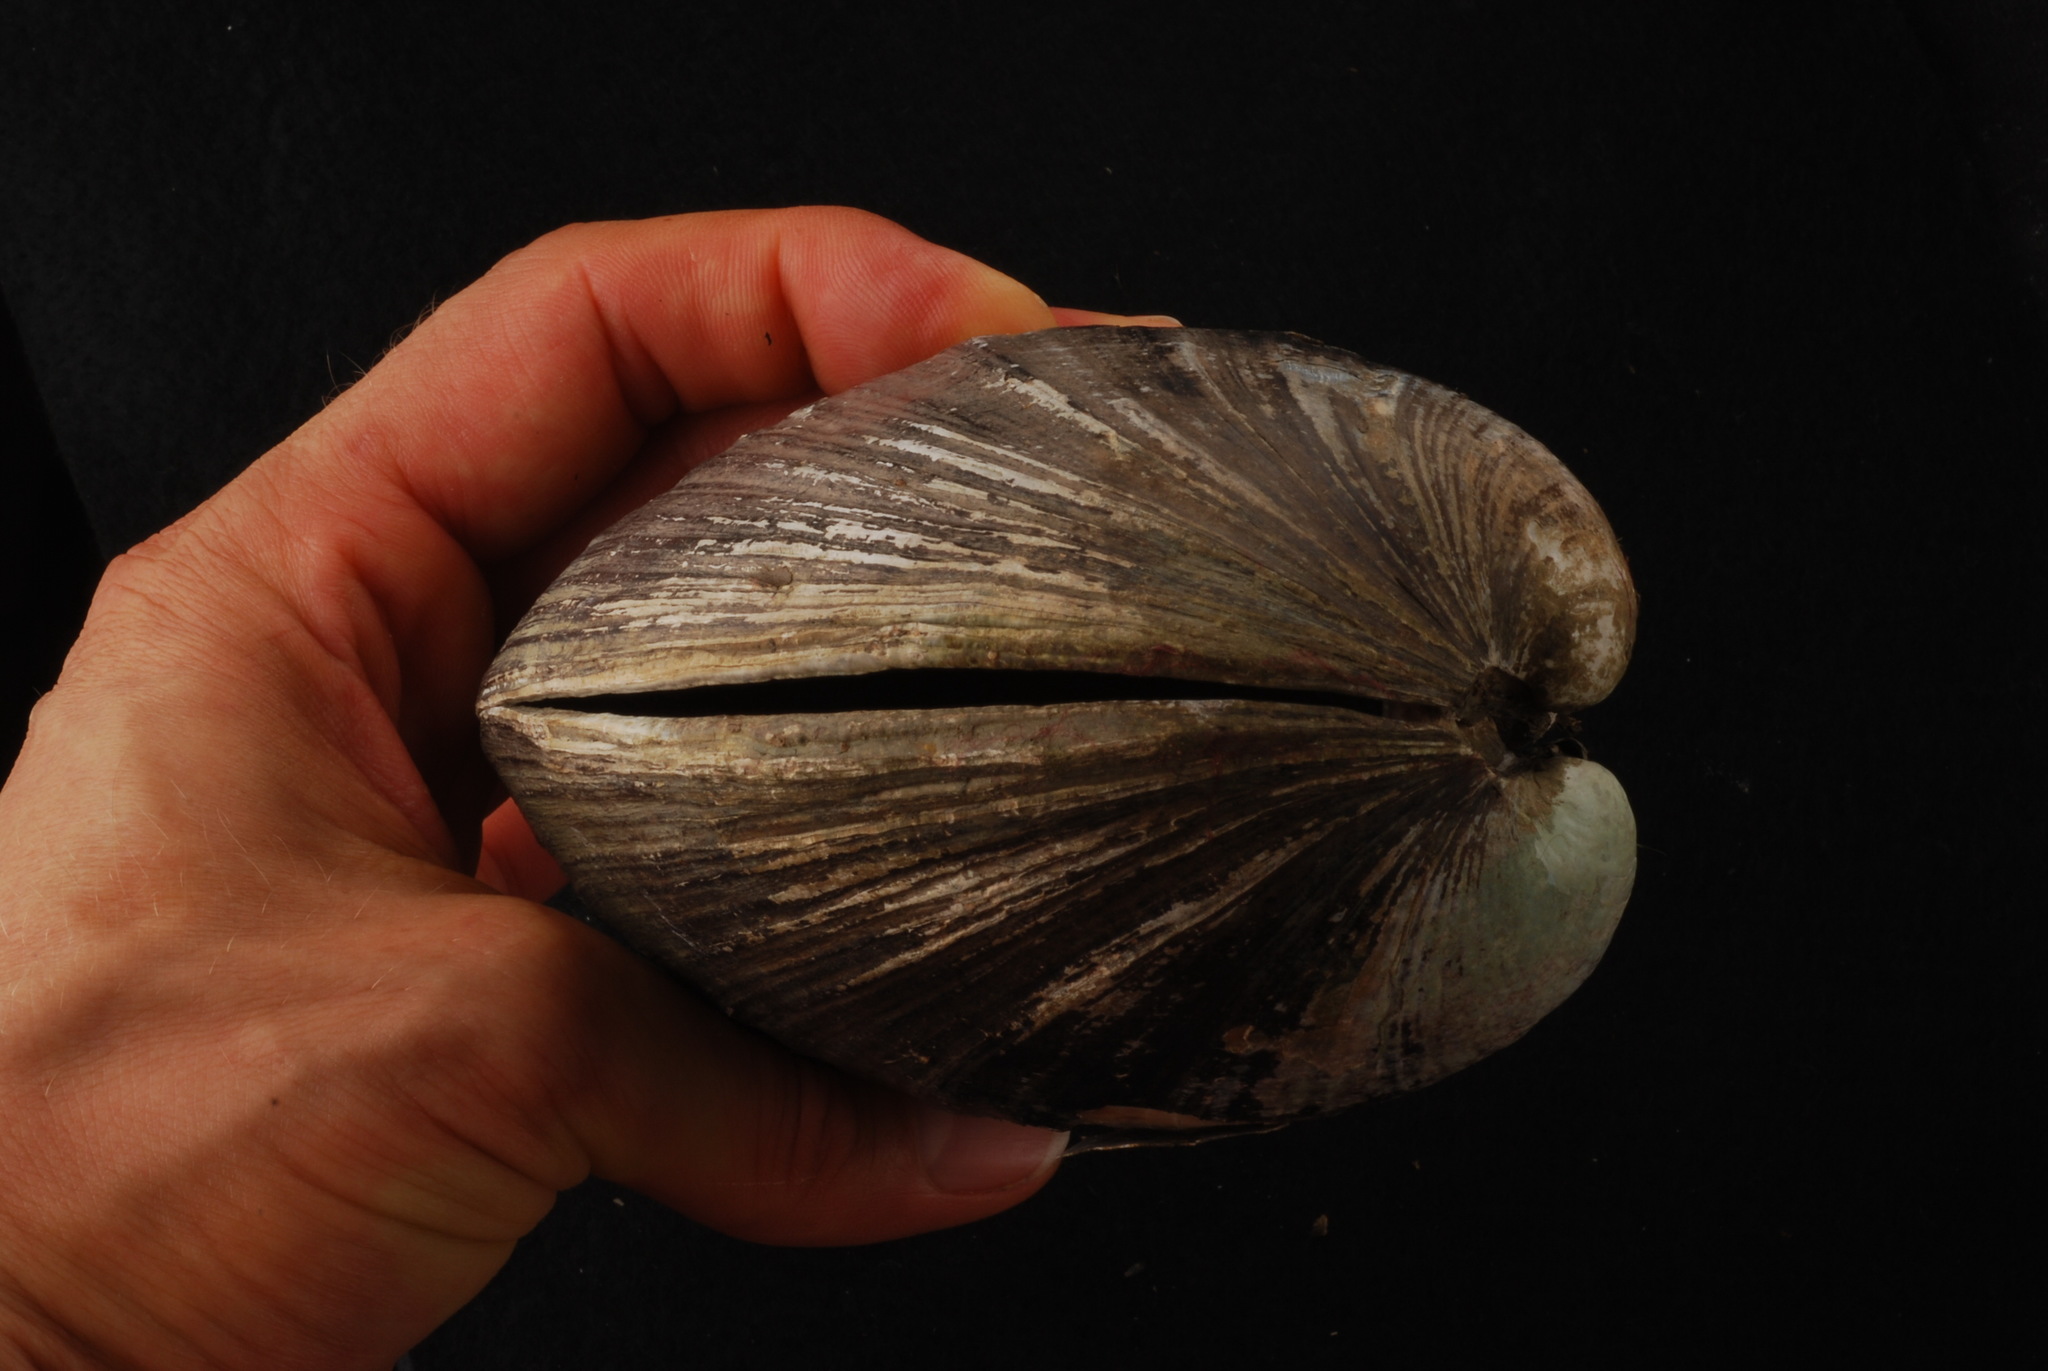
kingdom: Animalia
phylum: Mollusca
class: Bivalvia
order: Unionida
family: Unionidae
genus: Potamilus
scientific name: Potamilus purpuratus
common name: Bleufer
